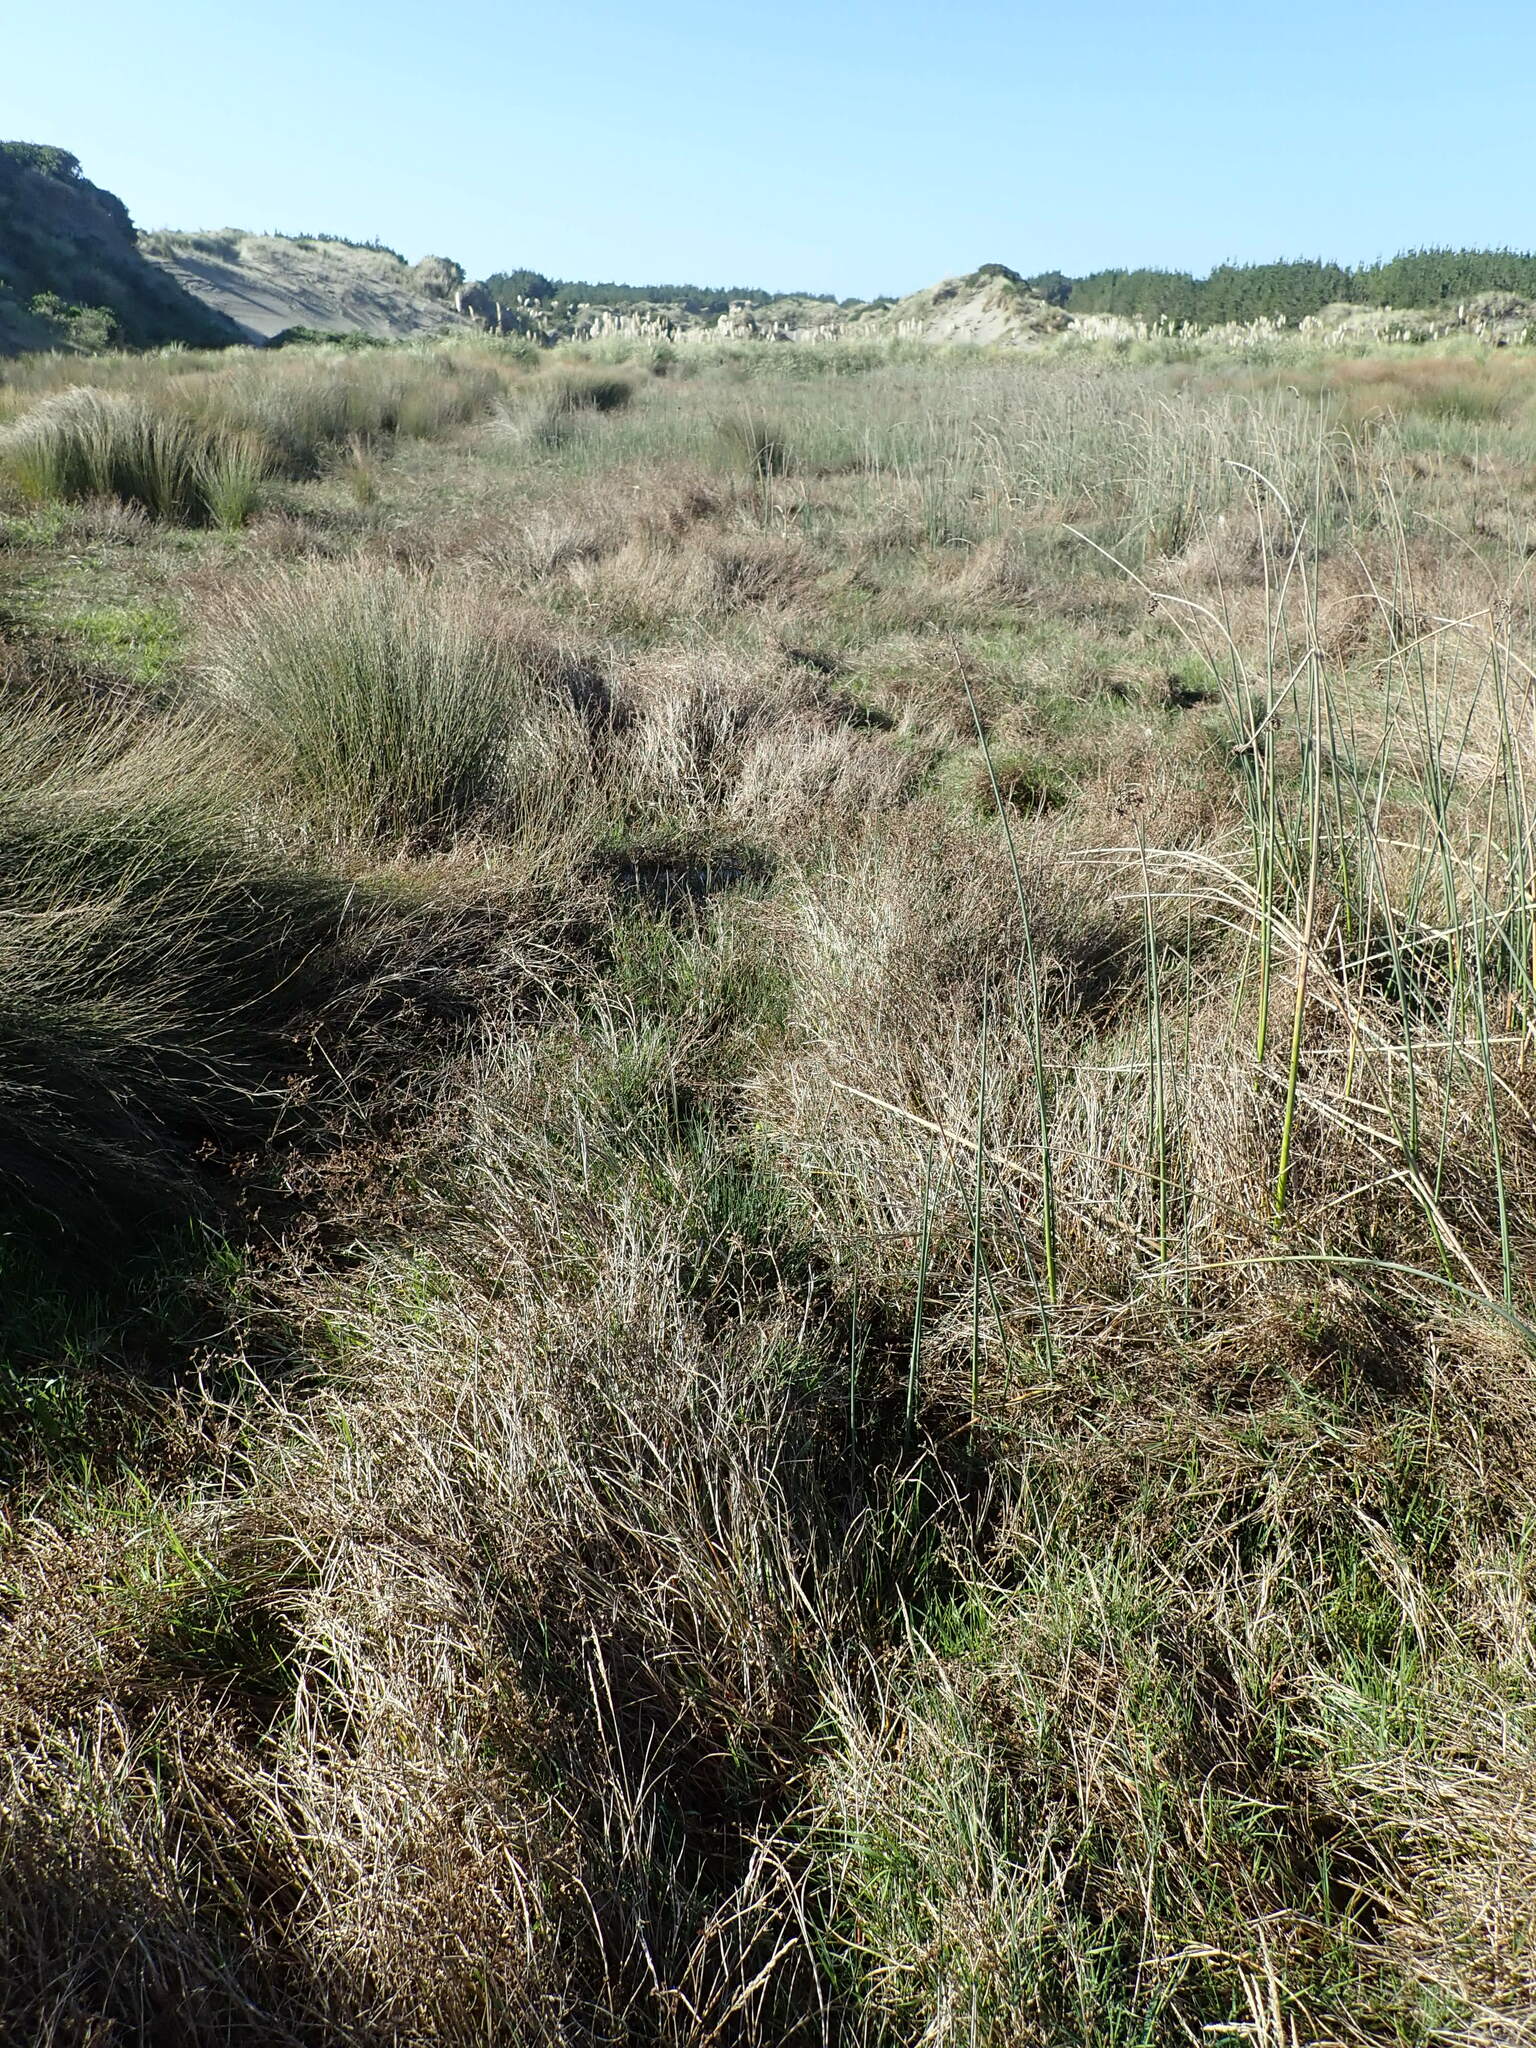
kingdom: Plantae
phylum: Tracheophyta
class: Liliopsida
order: Poales
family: Juncaceae
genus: Juncus
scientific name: Juncus articulatus
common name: Jointed rush
